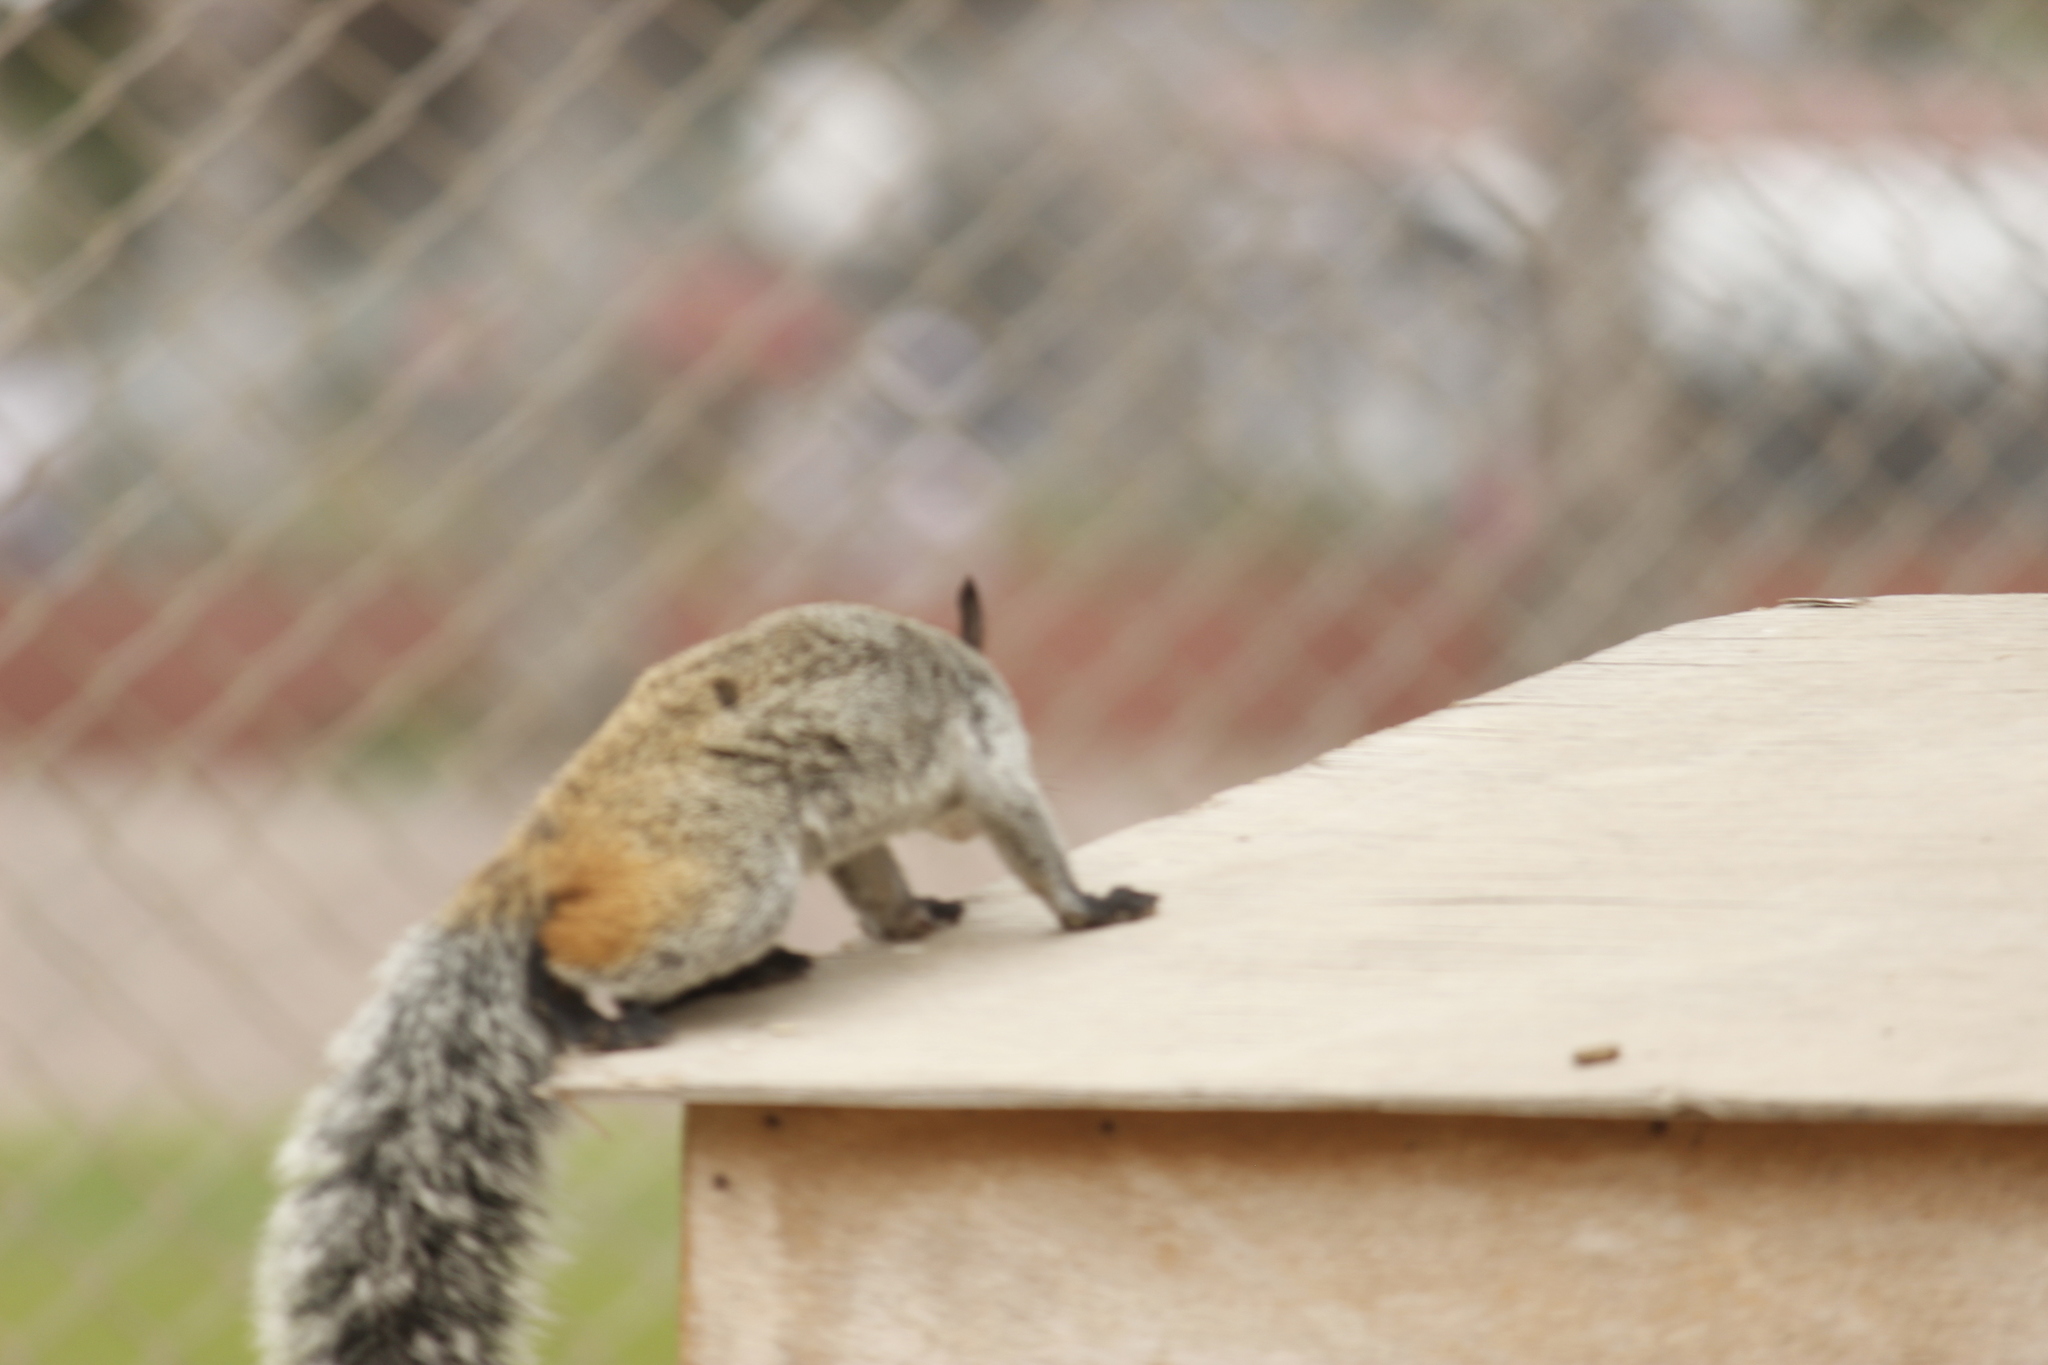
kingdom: Animalia
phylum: Chordata
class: Mammalia
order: Rodentia
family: Sciuridae
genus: Sciurus
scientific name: Sciurus stramineus
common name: Guayaquil squirrel
